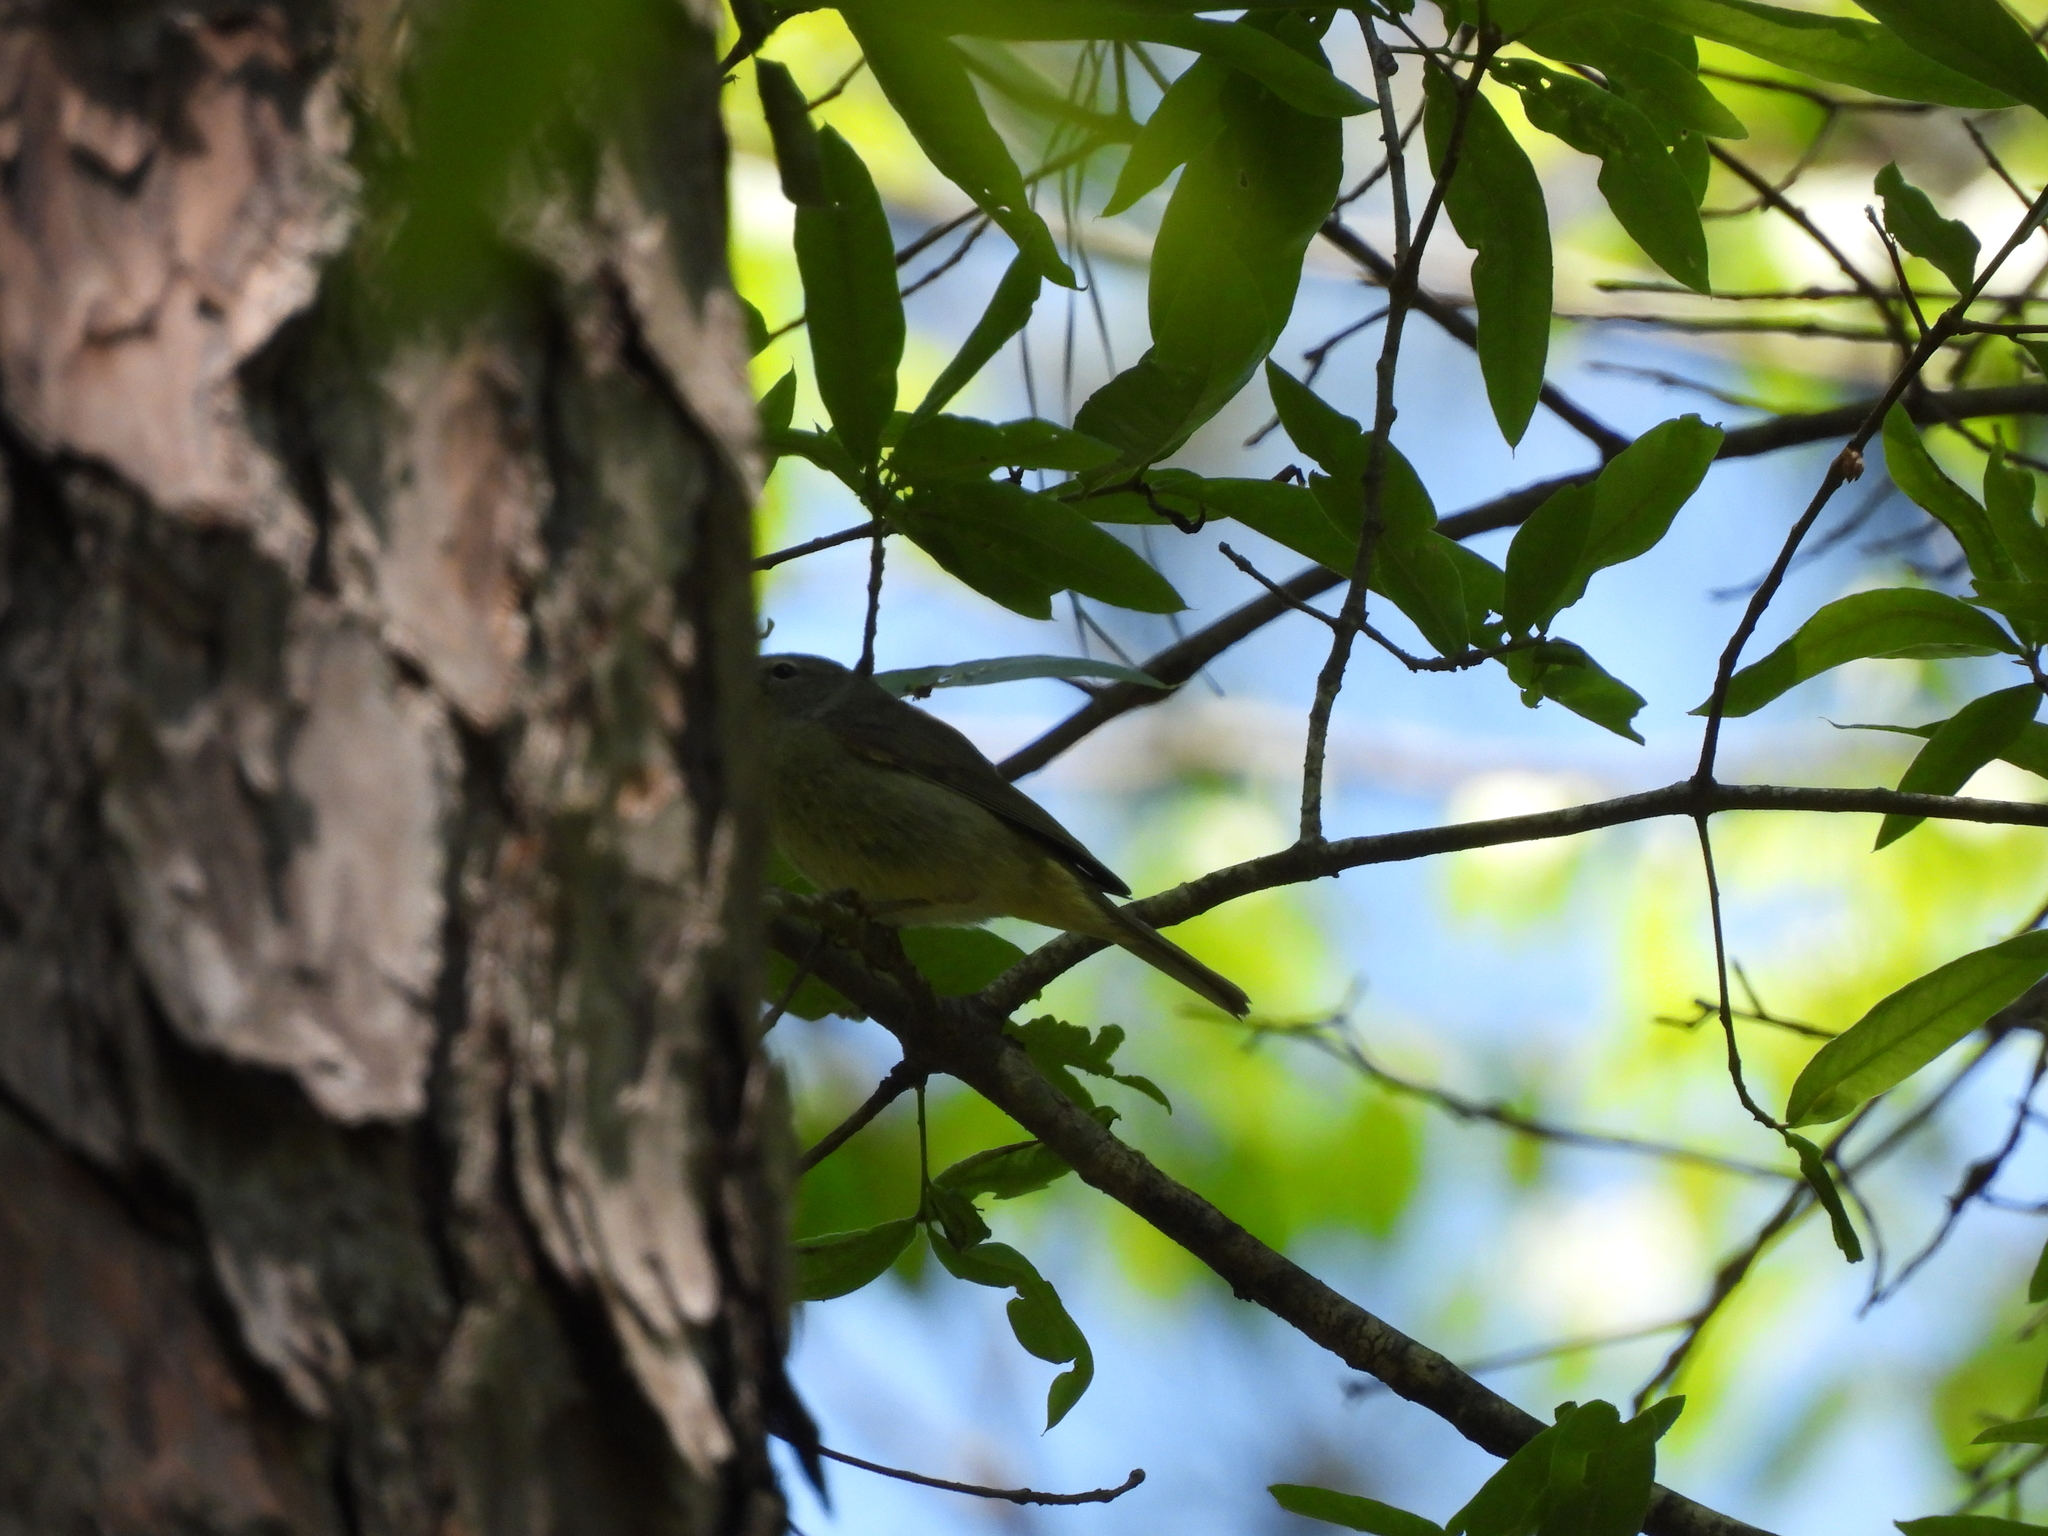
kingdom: Animalia
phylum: Chordata
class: Aves
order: Passeriformes
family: Parulidae
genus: Leiothlypis
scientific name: Leiothlypis celata
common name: Orange-crowned warbler
